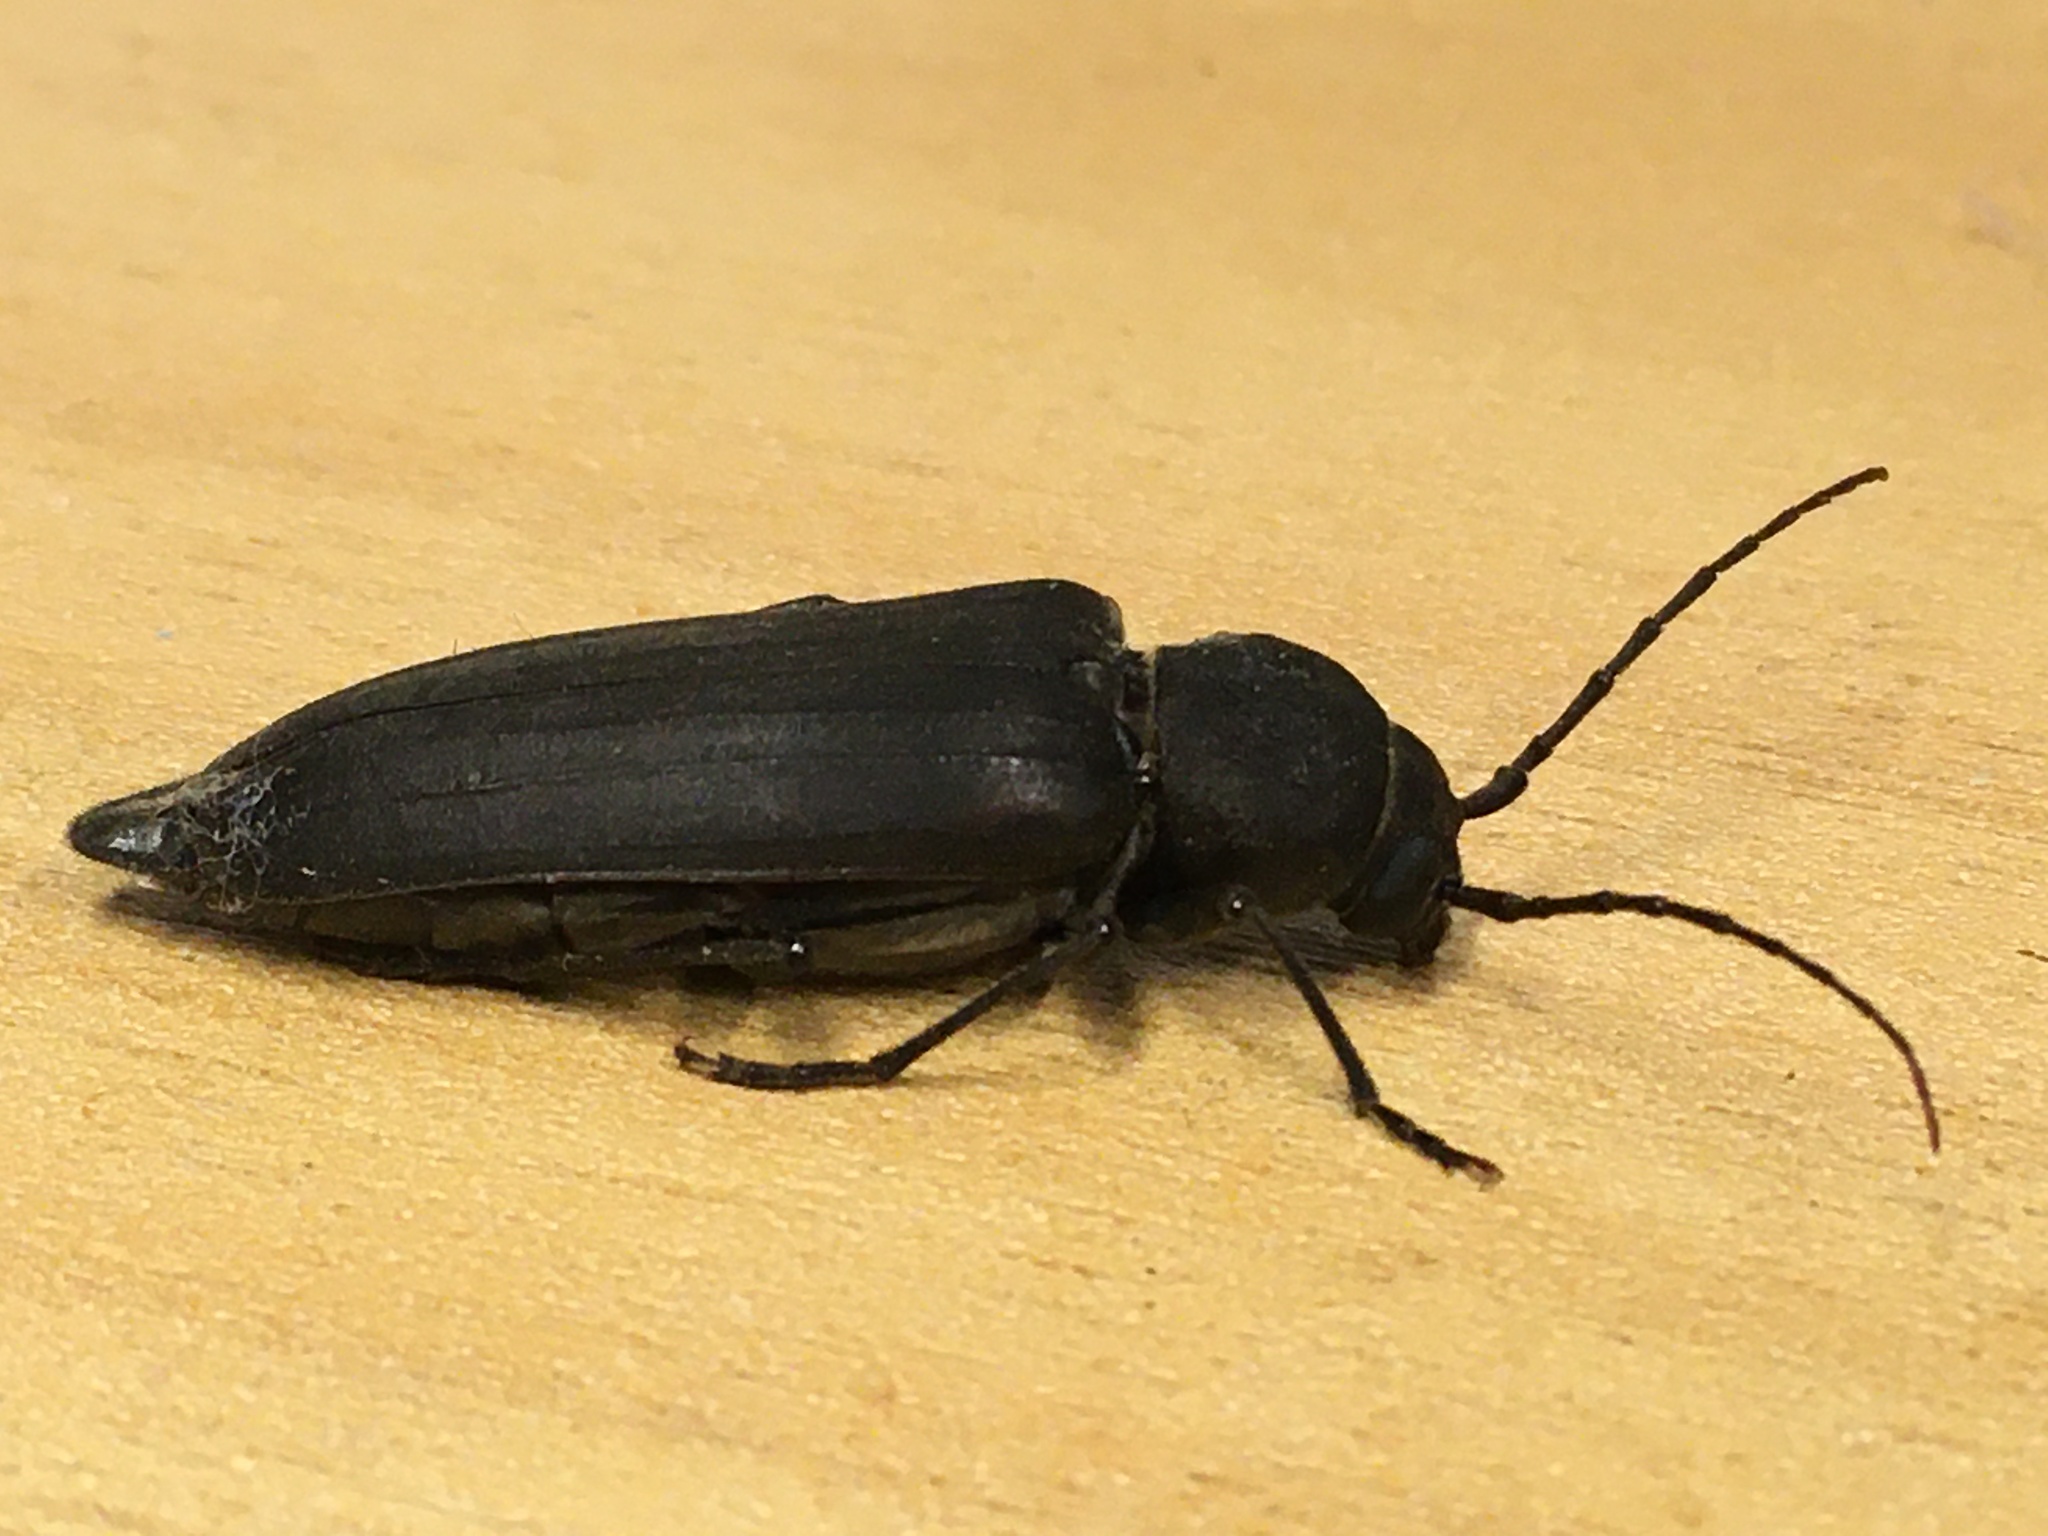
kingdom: Animalia
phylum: Arthropoda
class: Insecta
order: Coleoptera
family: Cerambycidae
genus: Arhopalus
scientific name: Arhopalus ferus
